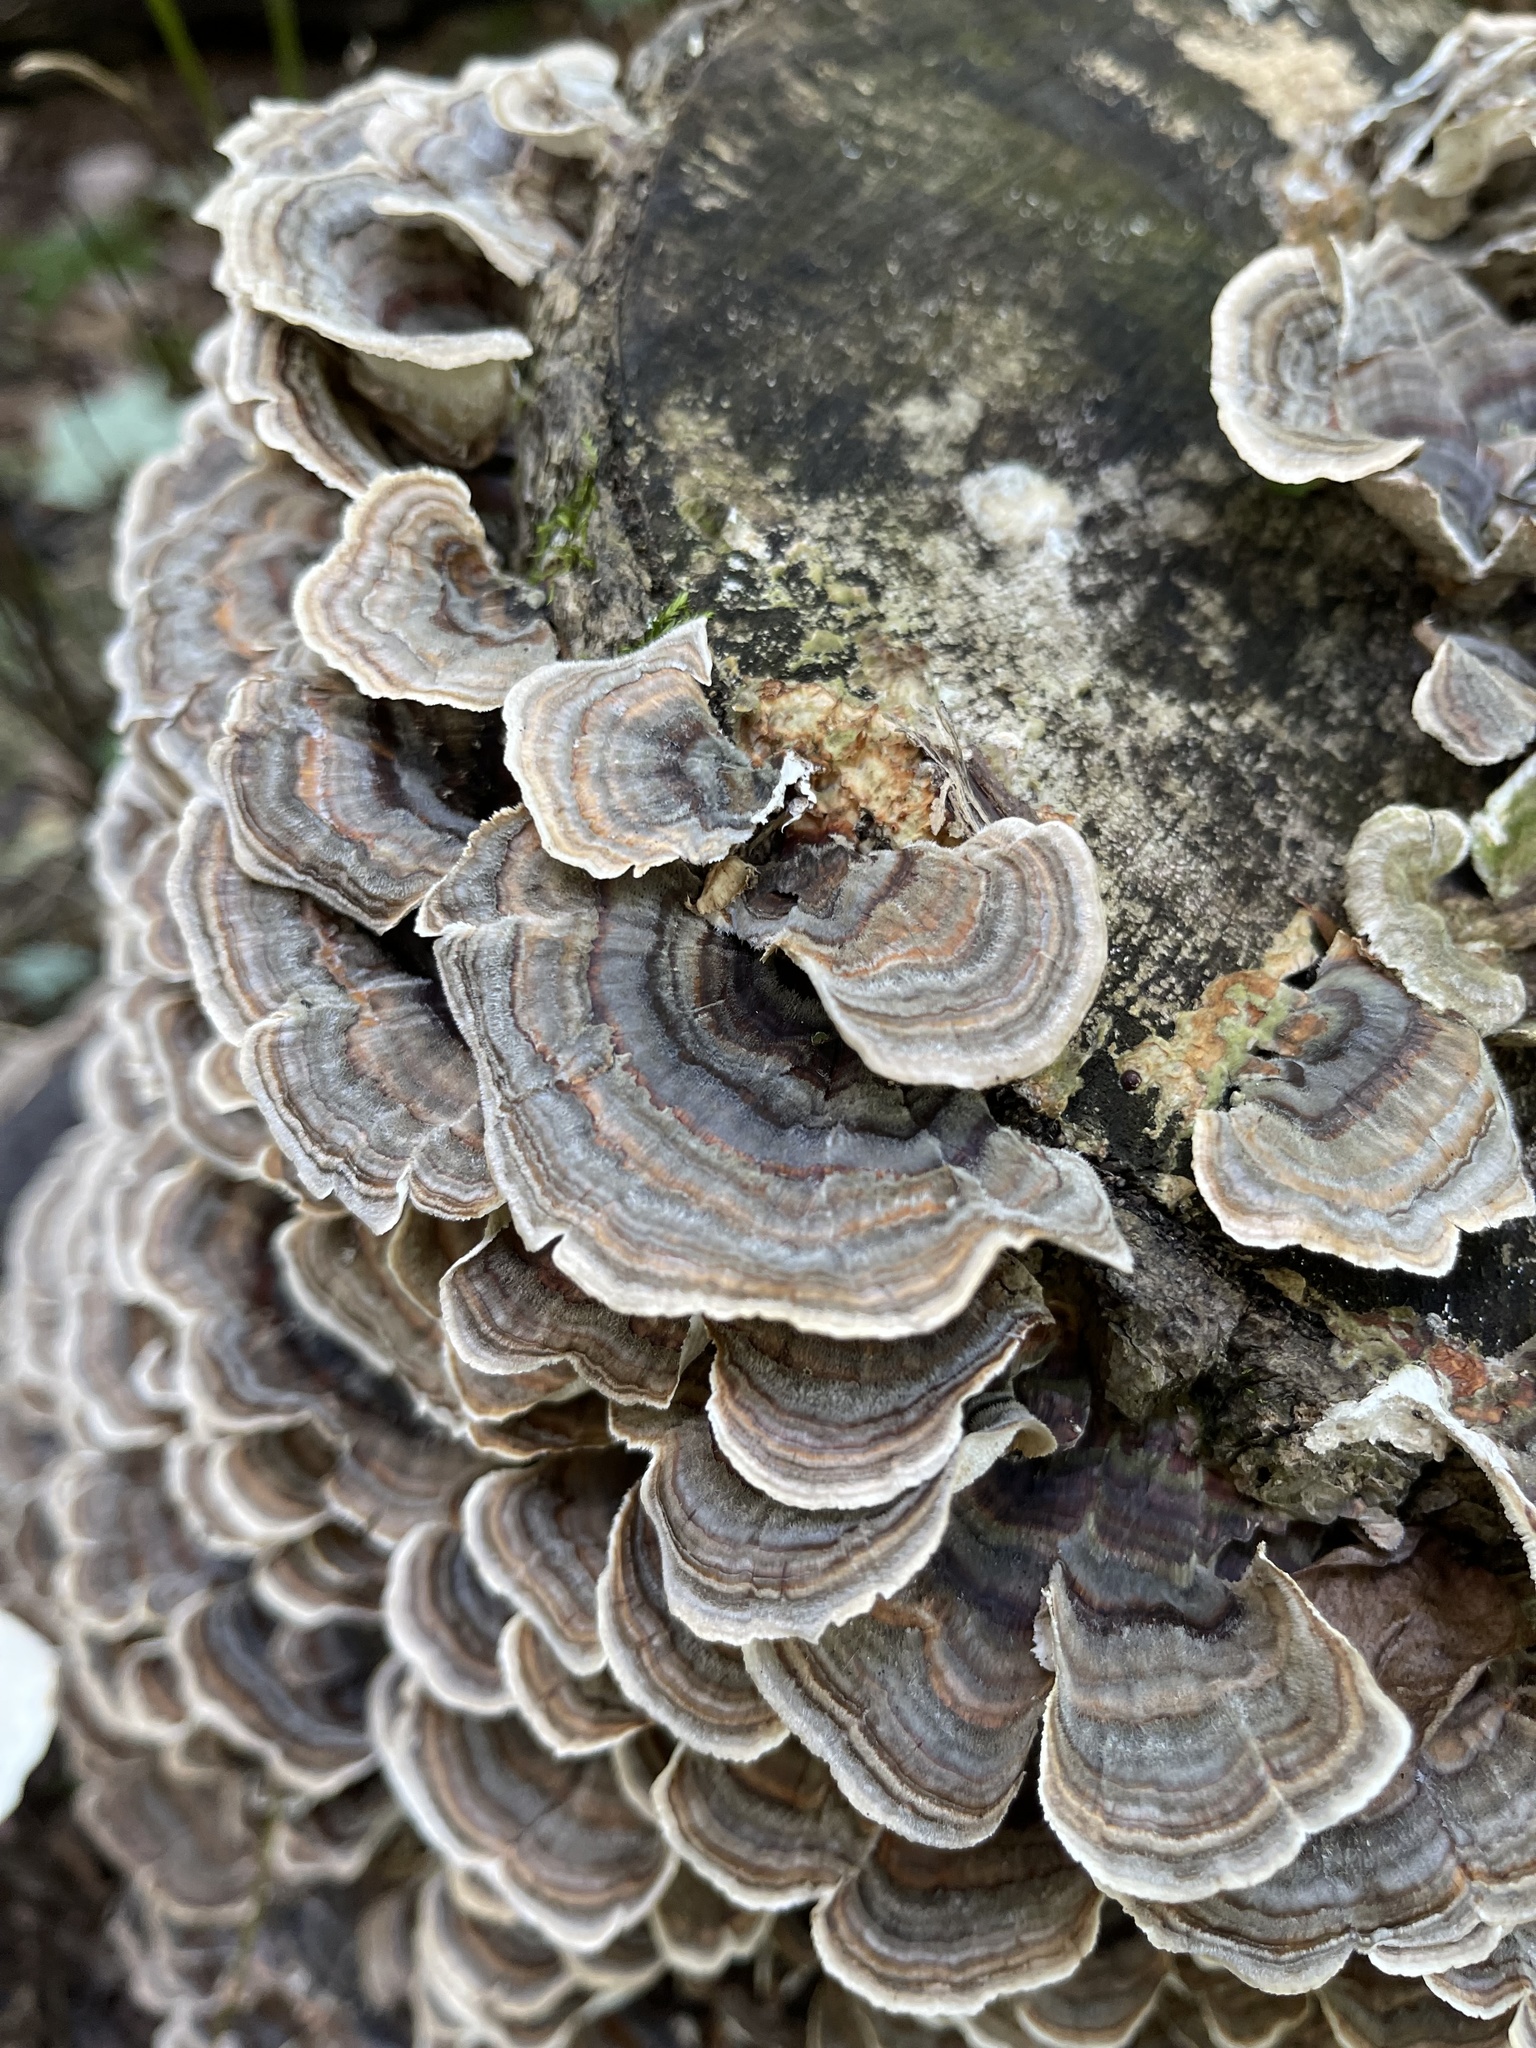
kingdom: Fungi
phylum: Basidiomycota
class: Agaricomycetes
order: Polyporales
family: Polyporaceae
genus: Trametes
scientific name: Trametes versicolor
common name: Turkeytail
